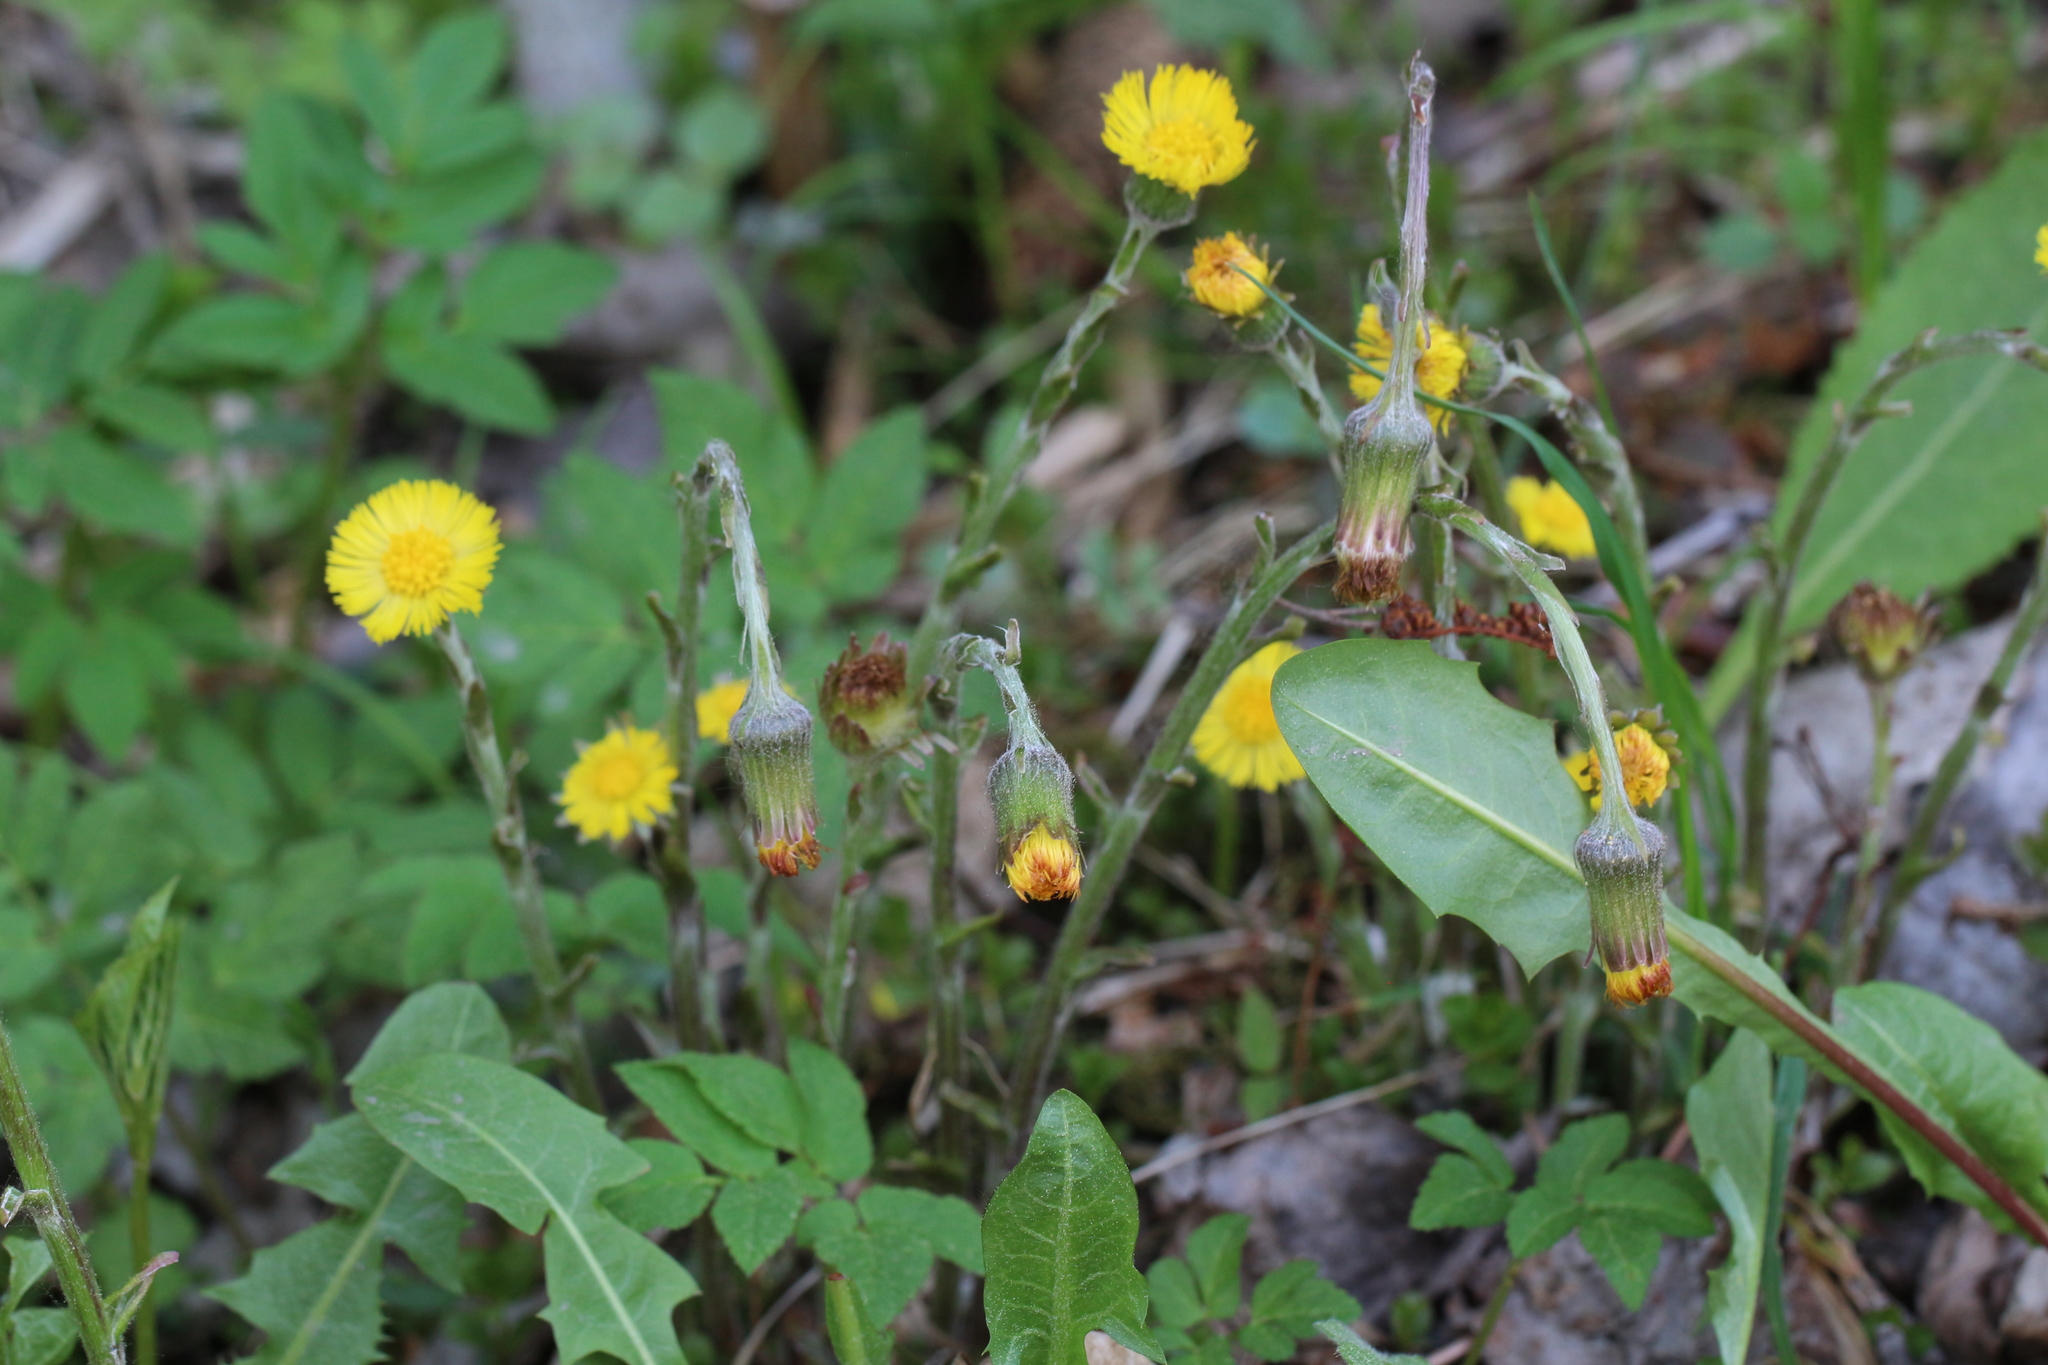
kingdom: Plantae
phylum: Tracheophyta
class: Magnoliopsida
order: Asterales
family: Asteraceae
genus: Tussilago
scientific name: Tussilago farfara
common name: Coltsfoot
